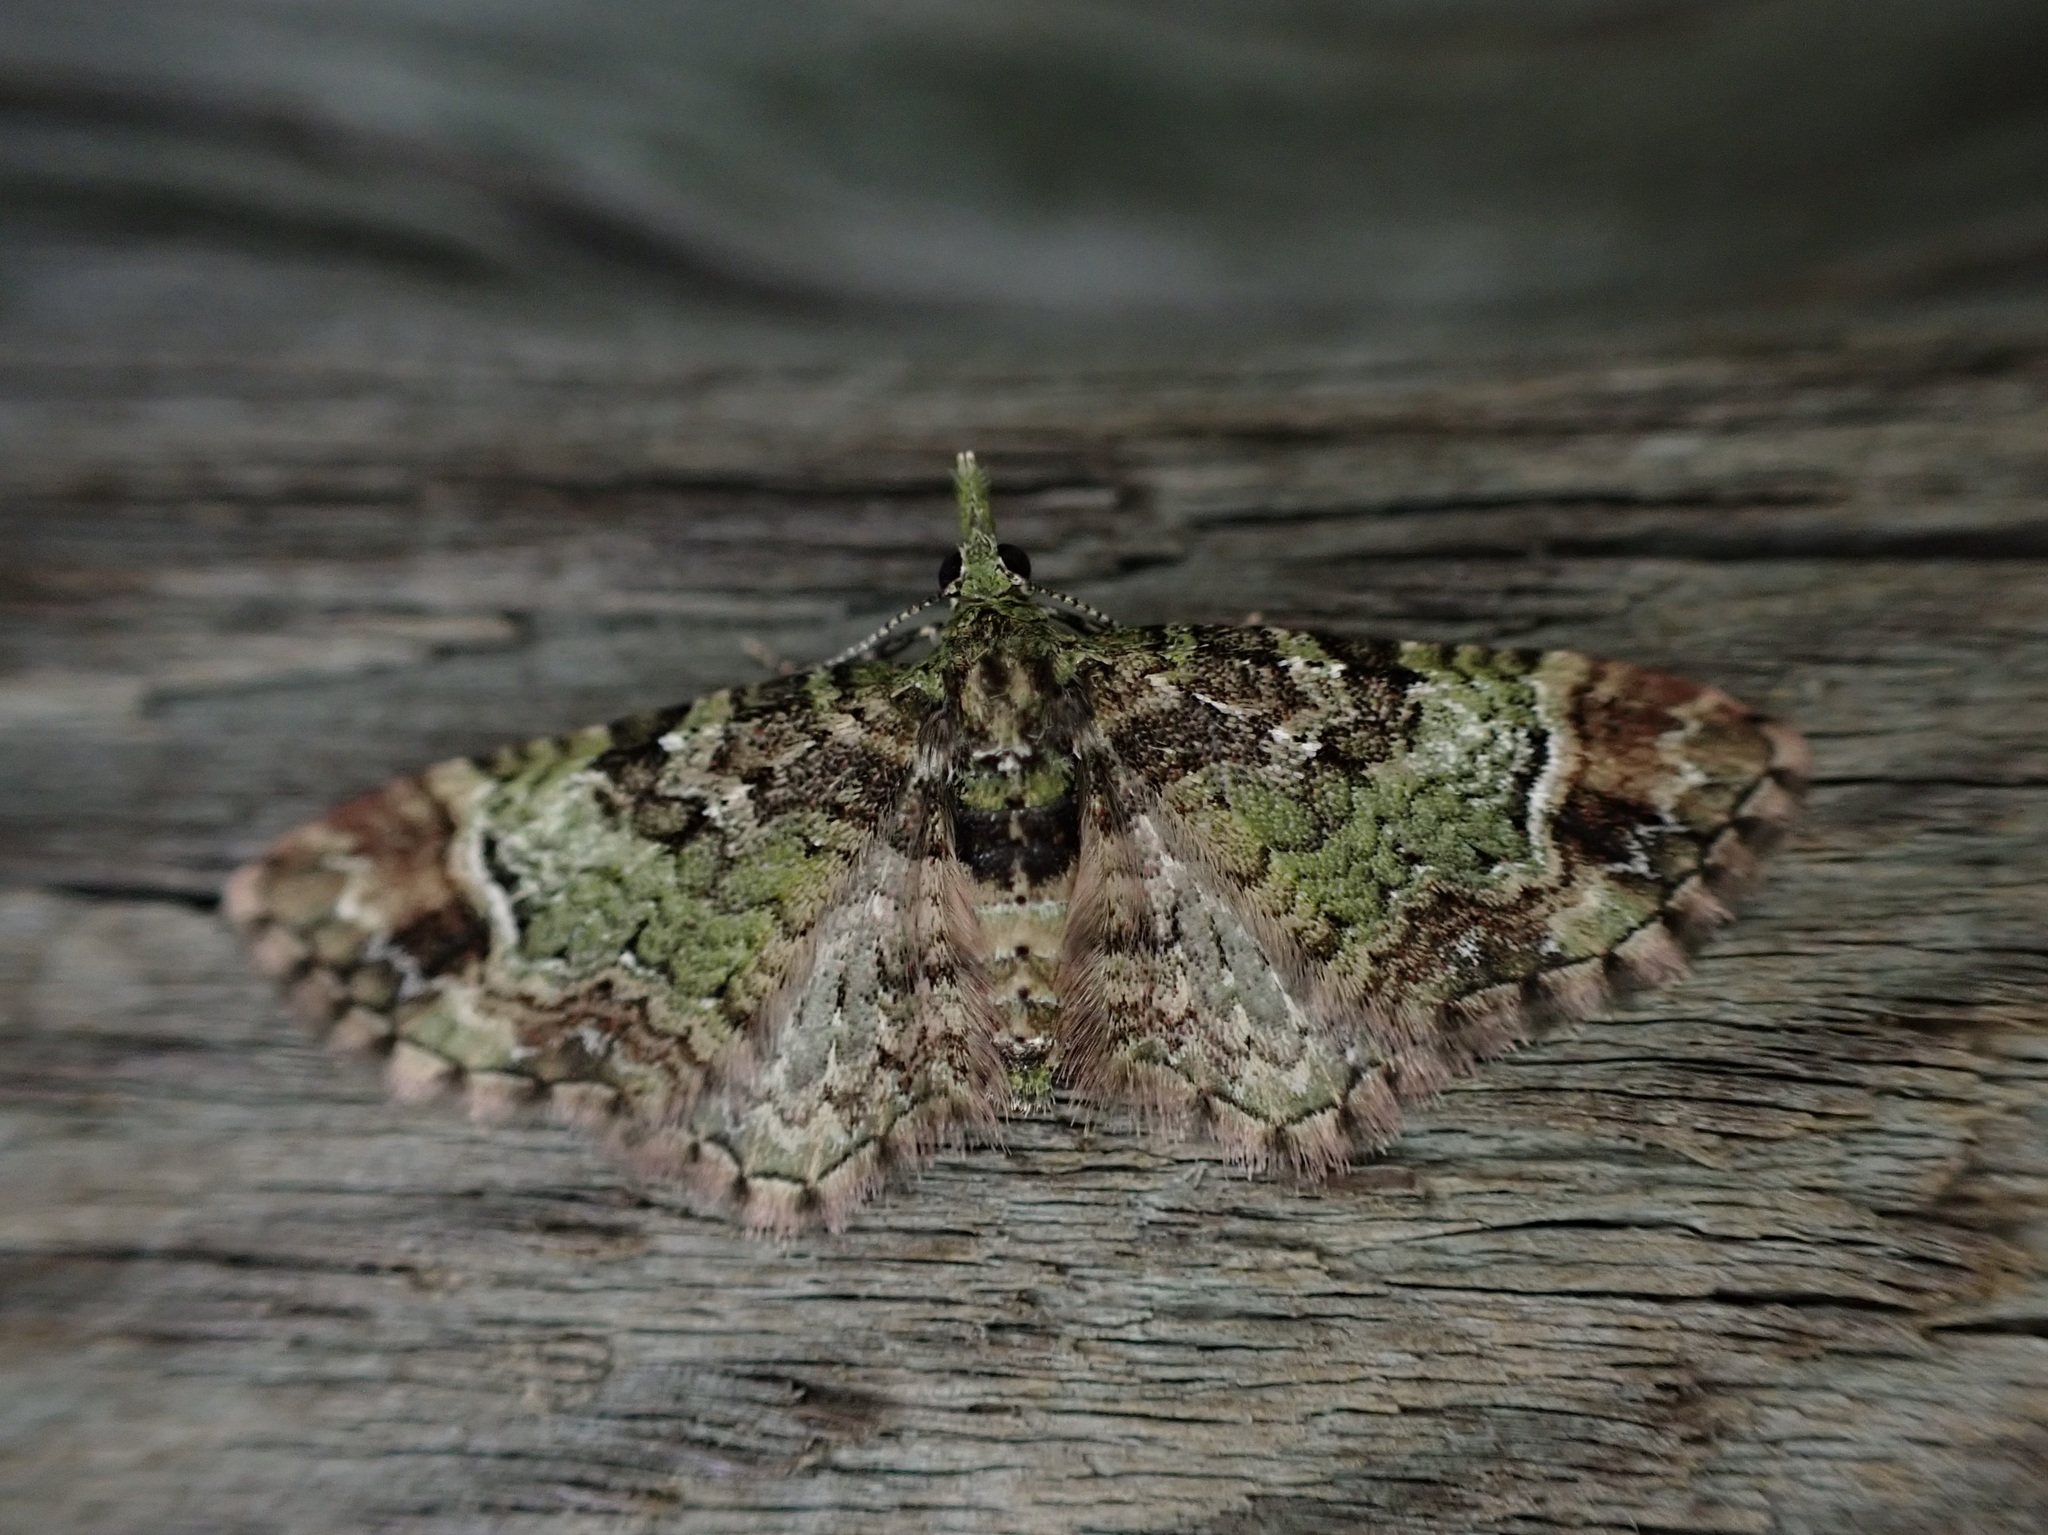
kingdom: Animalia
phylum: Arthropoda
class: Insecta
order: Lepidoptera
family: Geometridae
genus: Pasiphila
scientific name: Pasiphila sandycias
